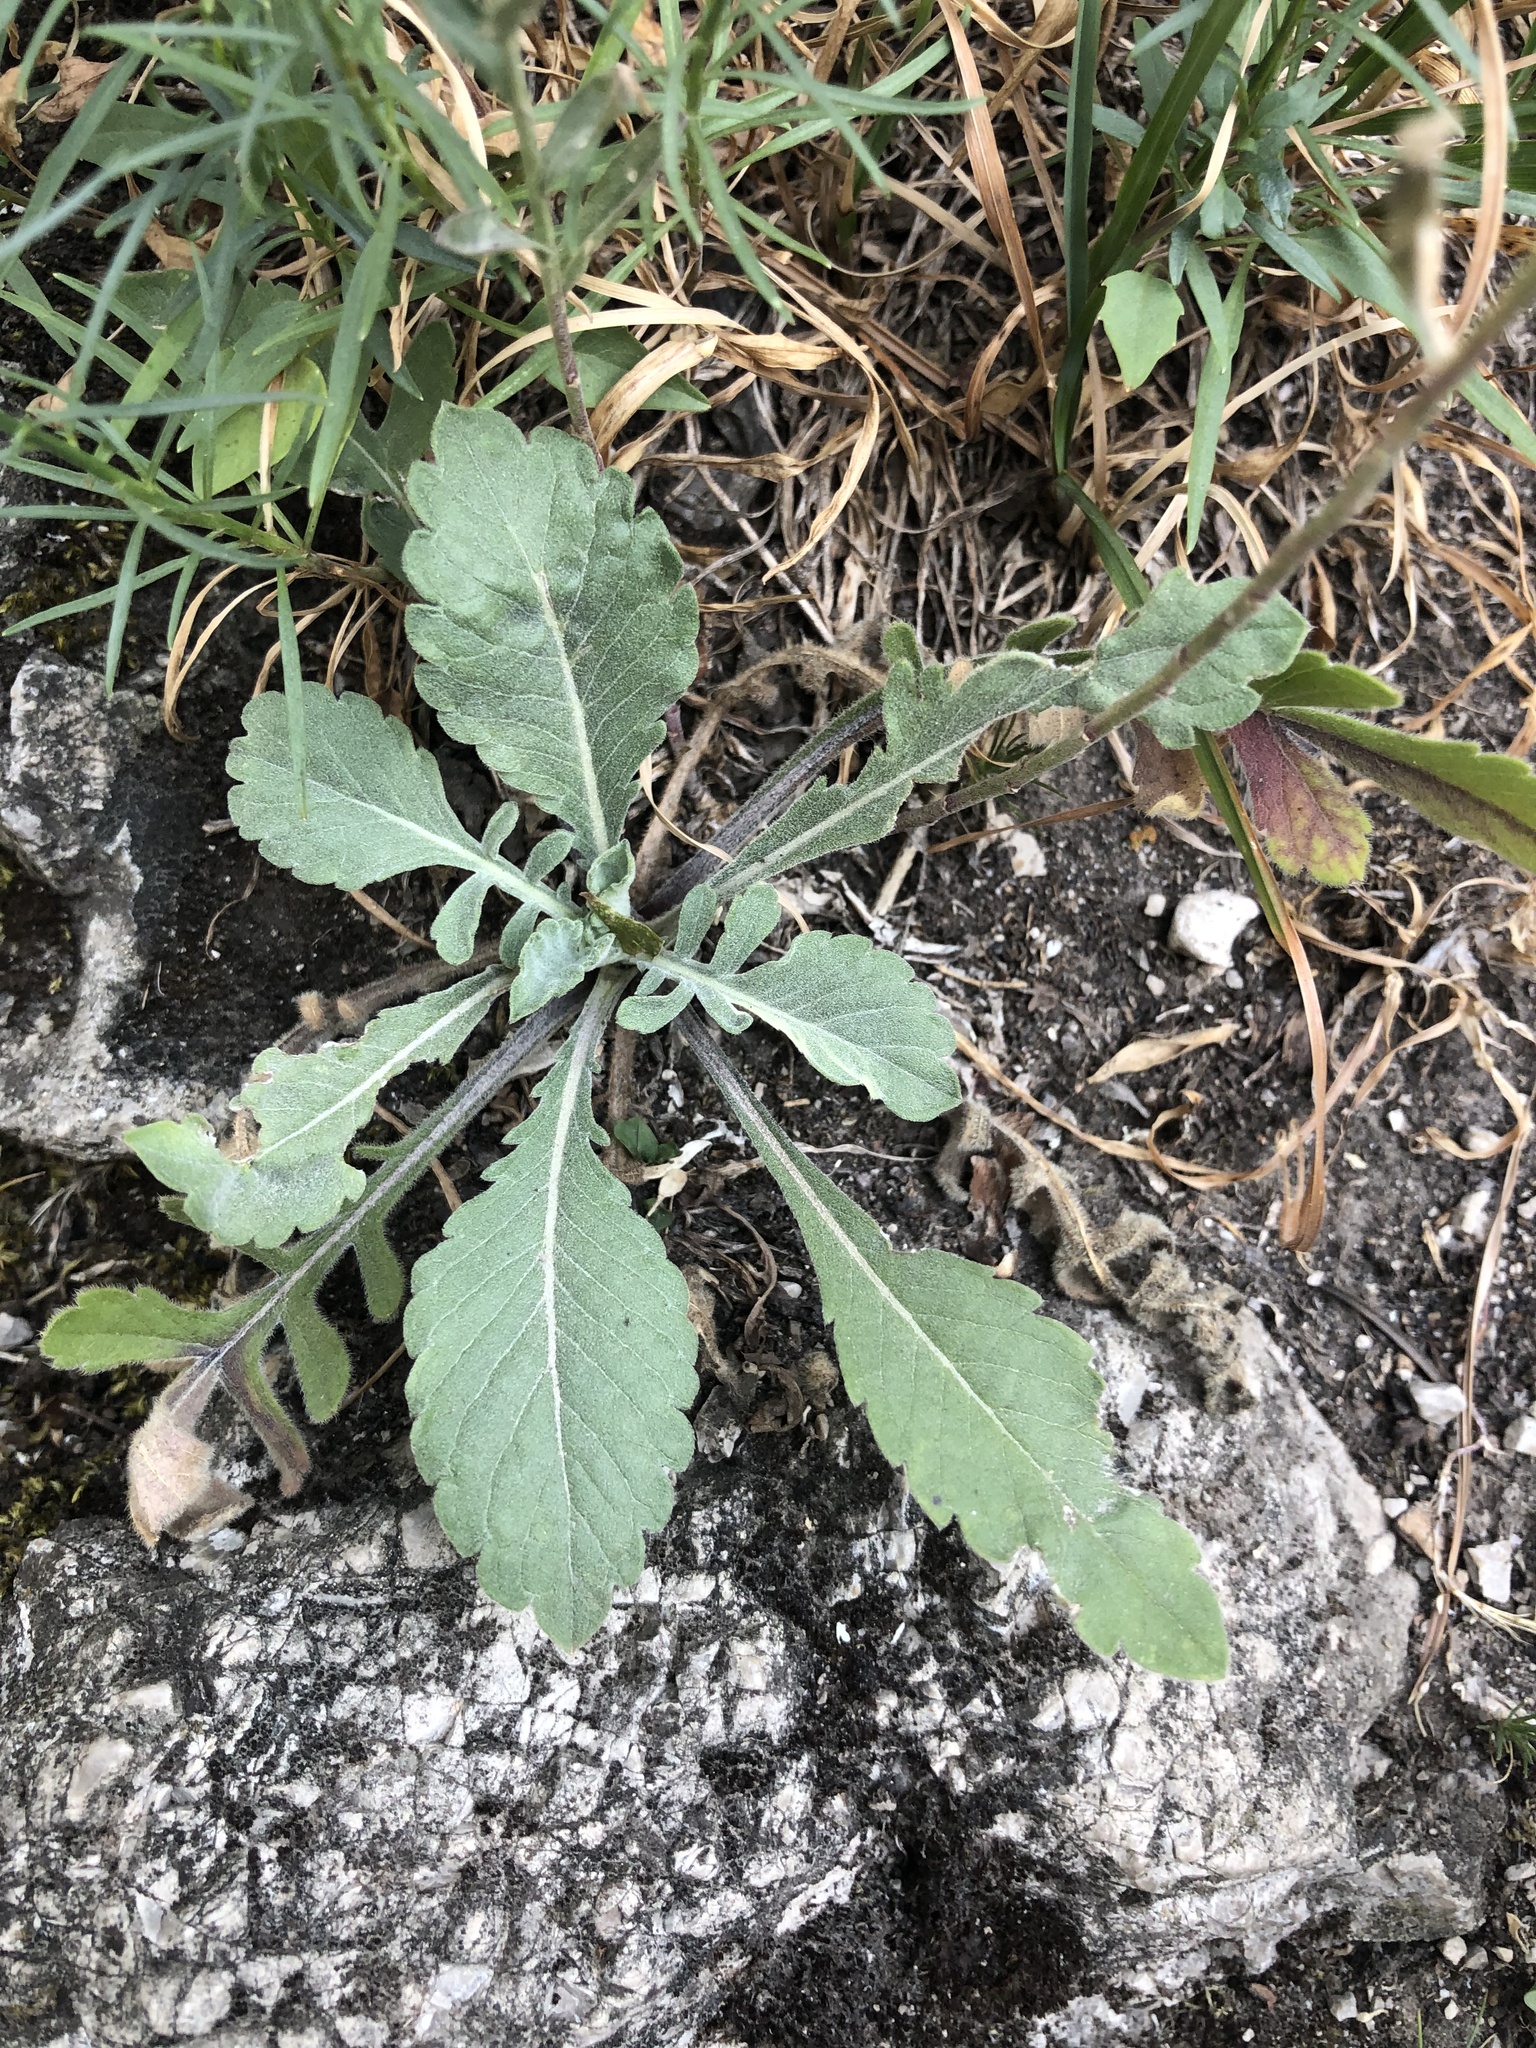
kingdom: Plantae
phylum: Tracheophyta
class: Magnoliopsida
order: Brassicales
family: Brassicaceae
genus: Berteroa
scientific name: Berteroa incana
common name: Hoary alison
